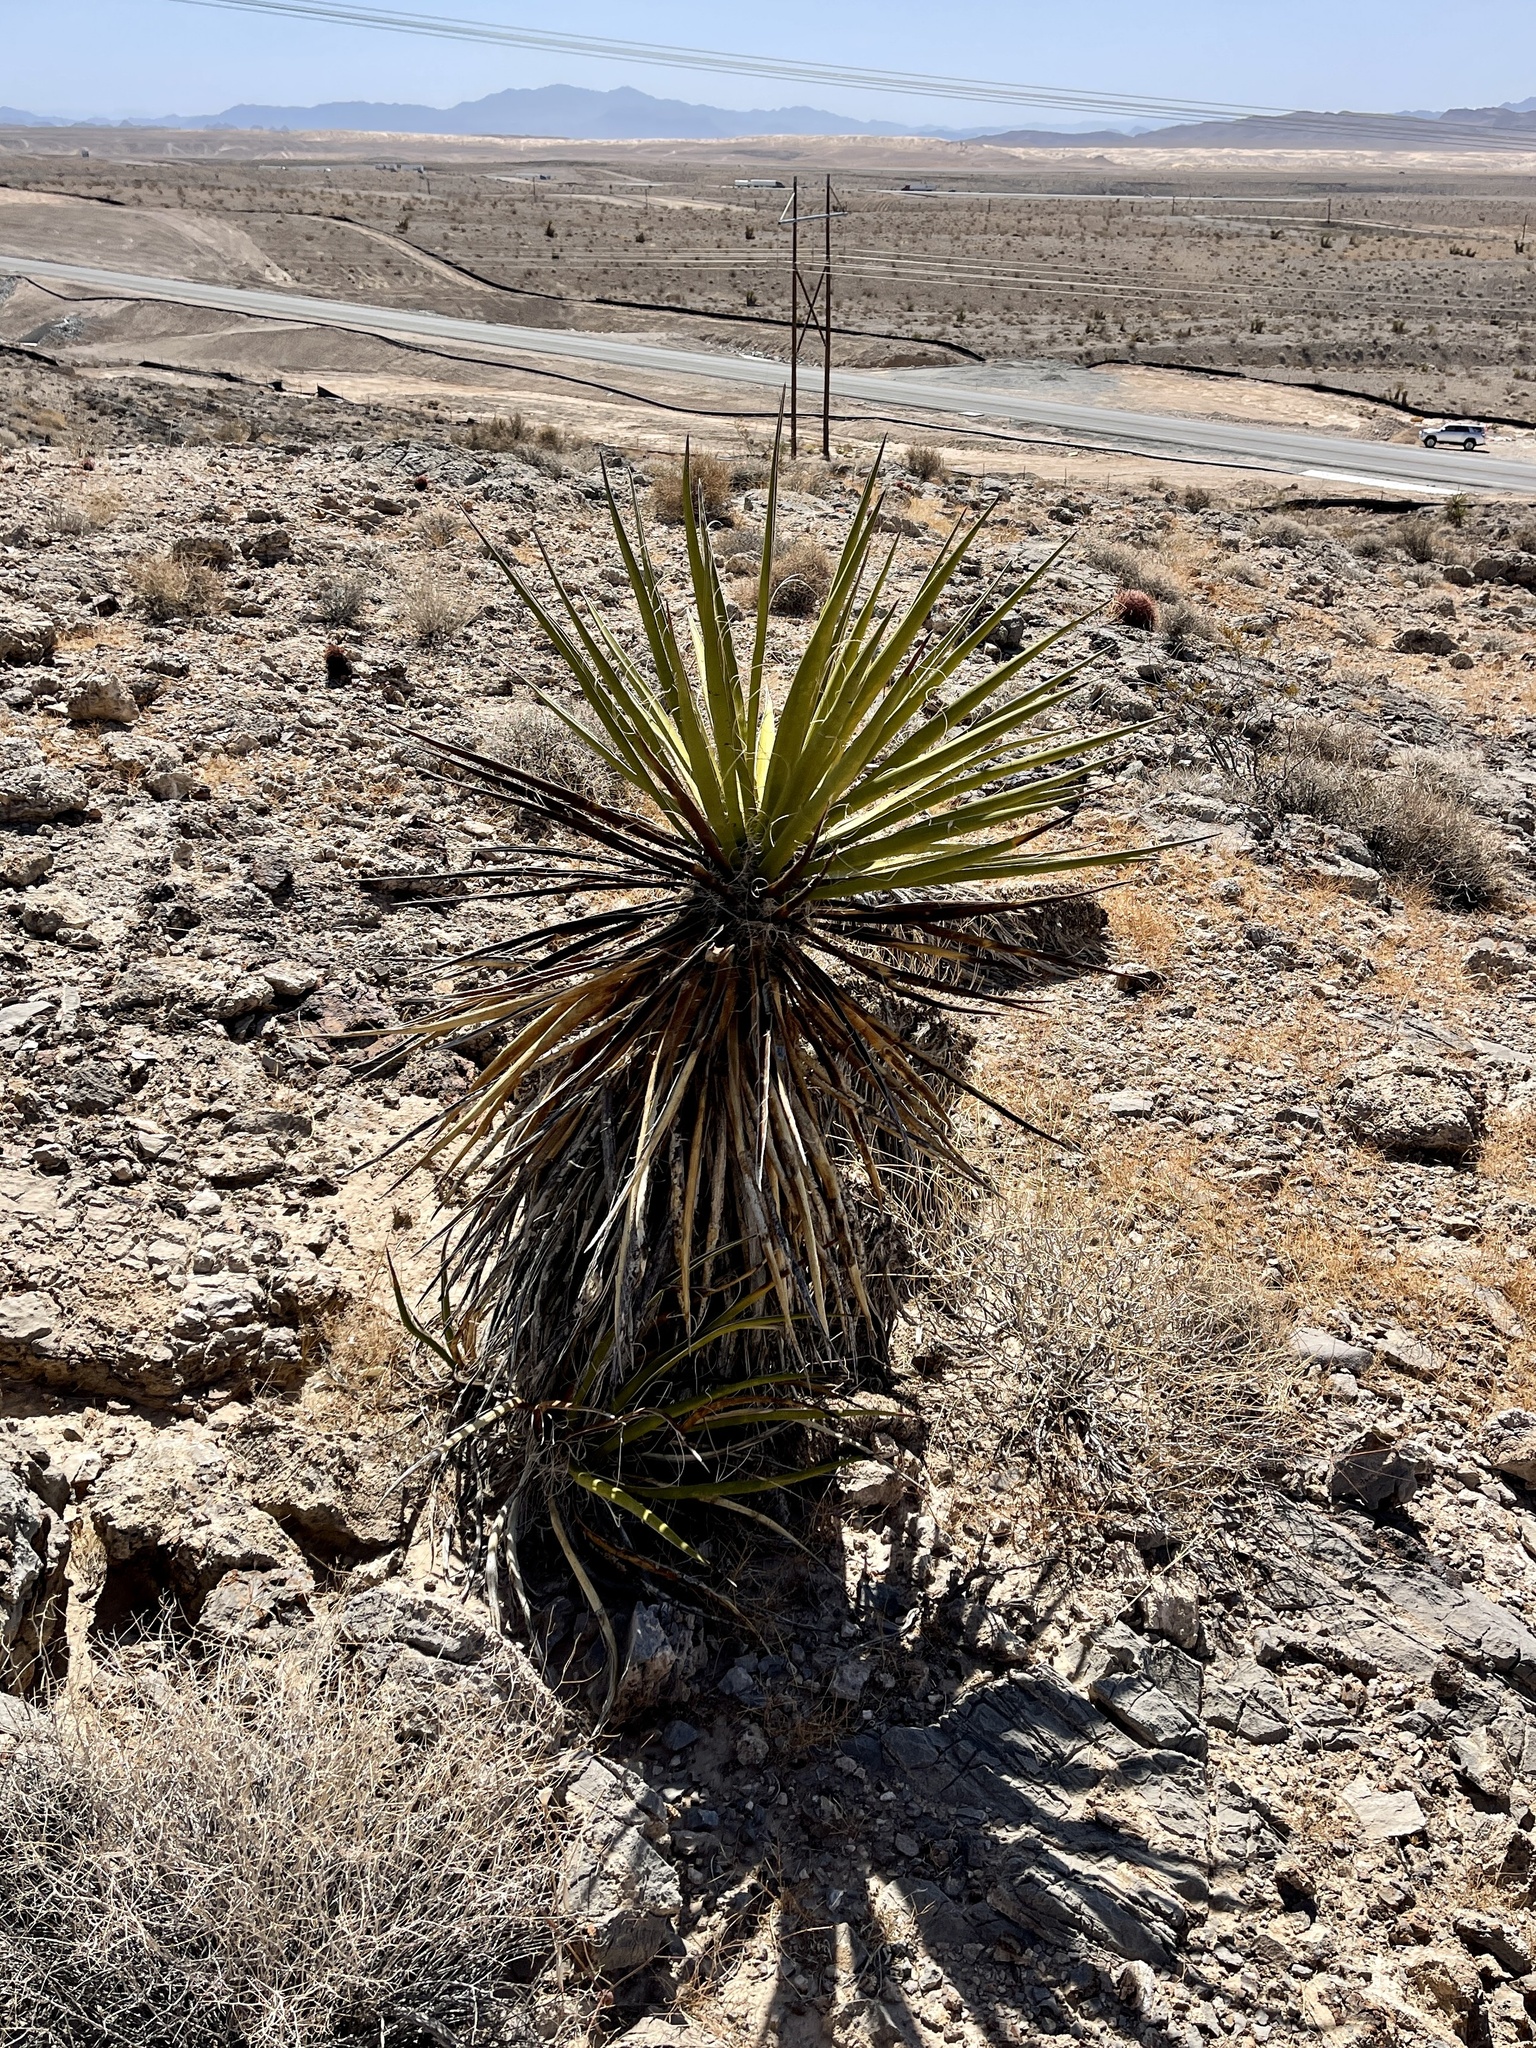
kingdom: Plantae
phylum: Tracheophyta
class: Liliopsida
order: Asparagales
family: Asparagaceae
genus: Yucca
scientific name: Yucca schidigera
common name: Mojave yucca
